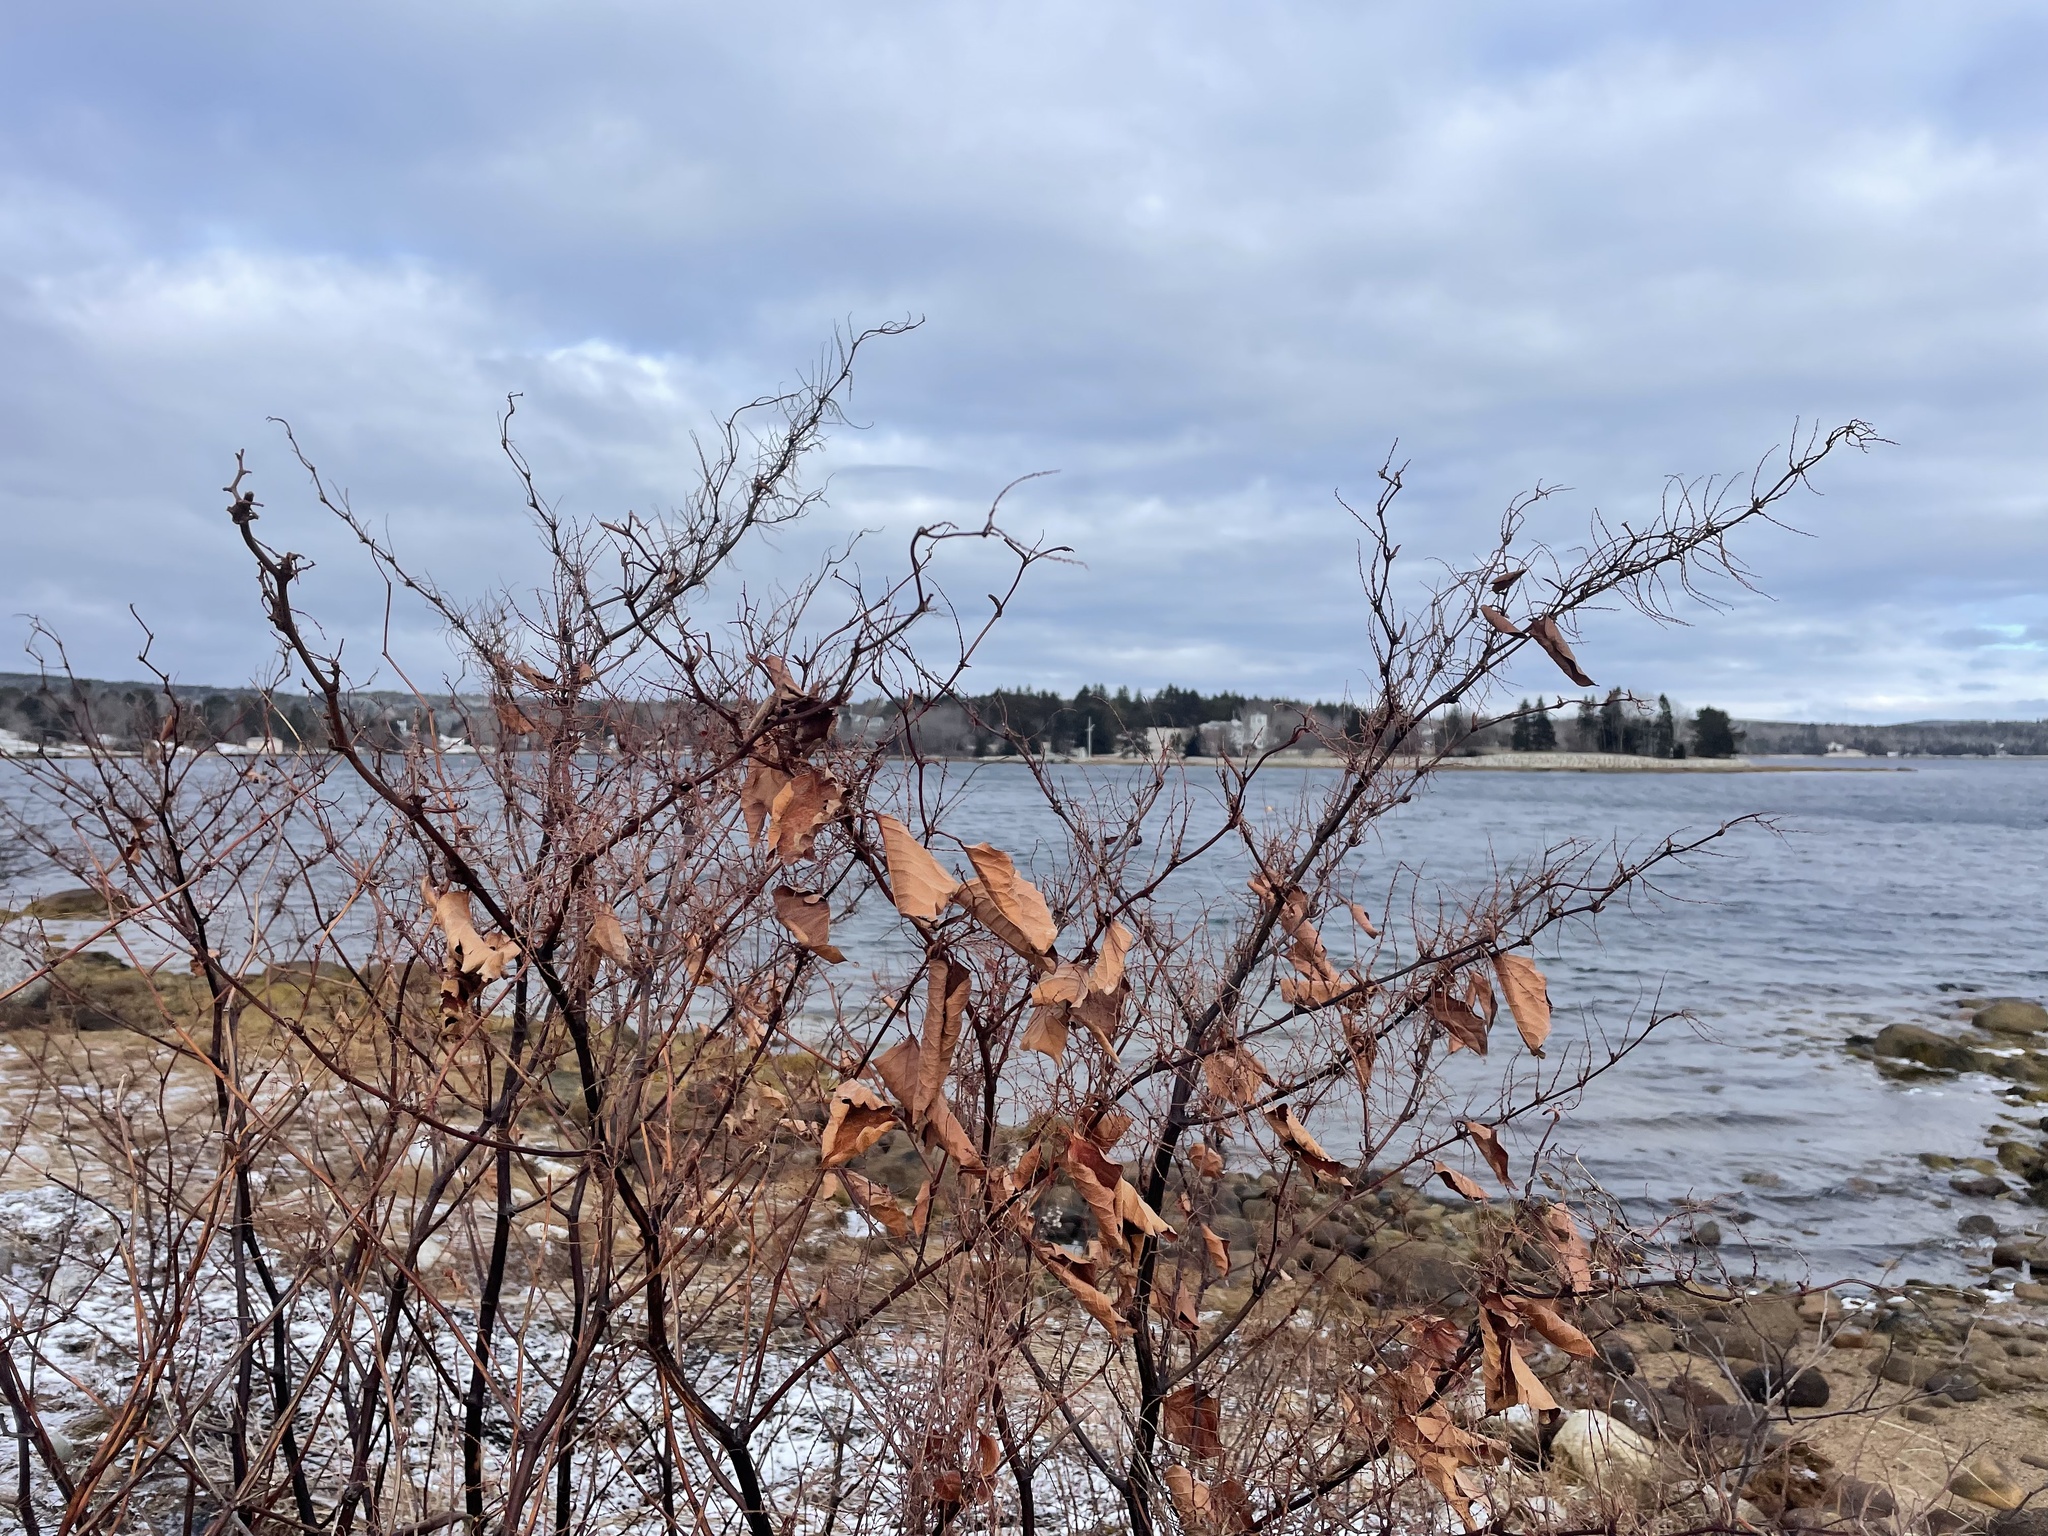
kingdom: Plantae
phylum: Tracheophyta
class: Magnoliopsida
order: Caryophyllales
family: Polygonaceae
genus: Reynoutria
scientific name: Reynoutria japonica
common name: Japanese knotweed
